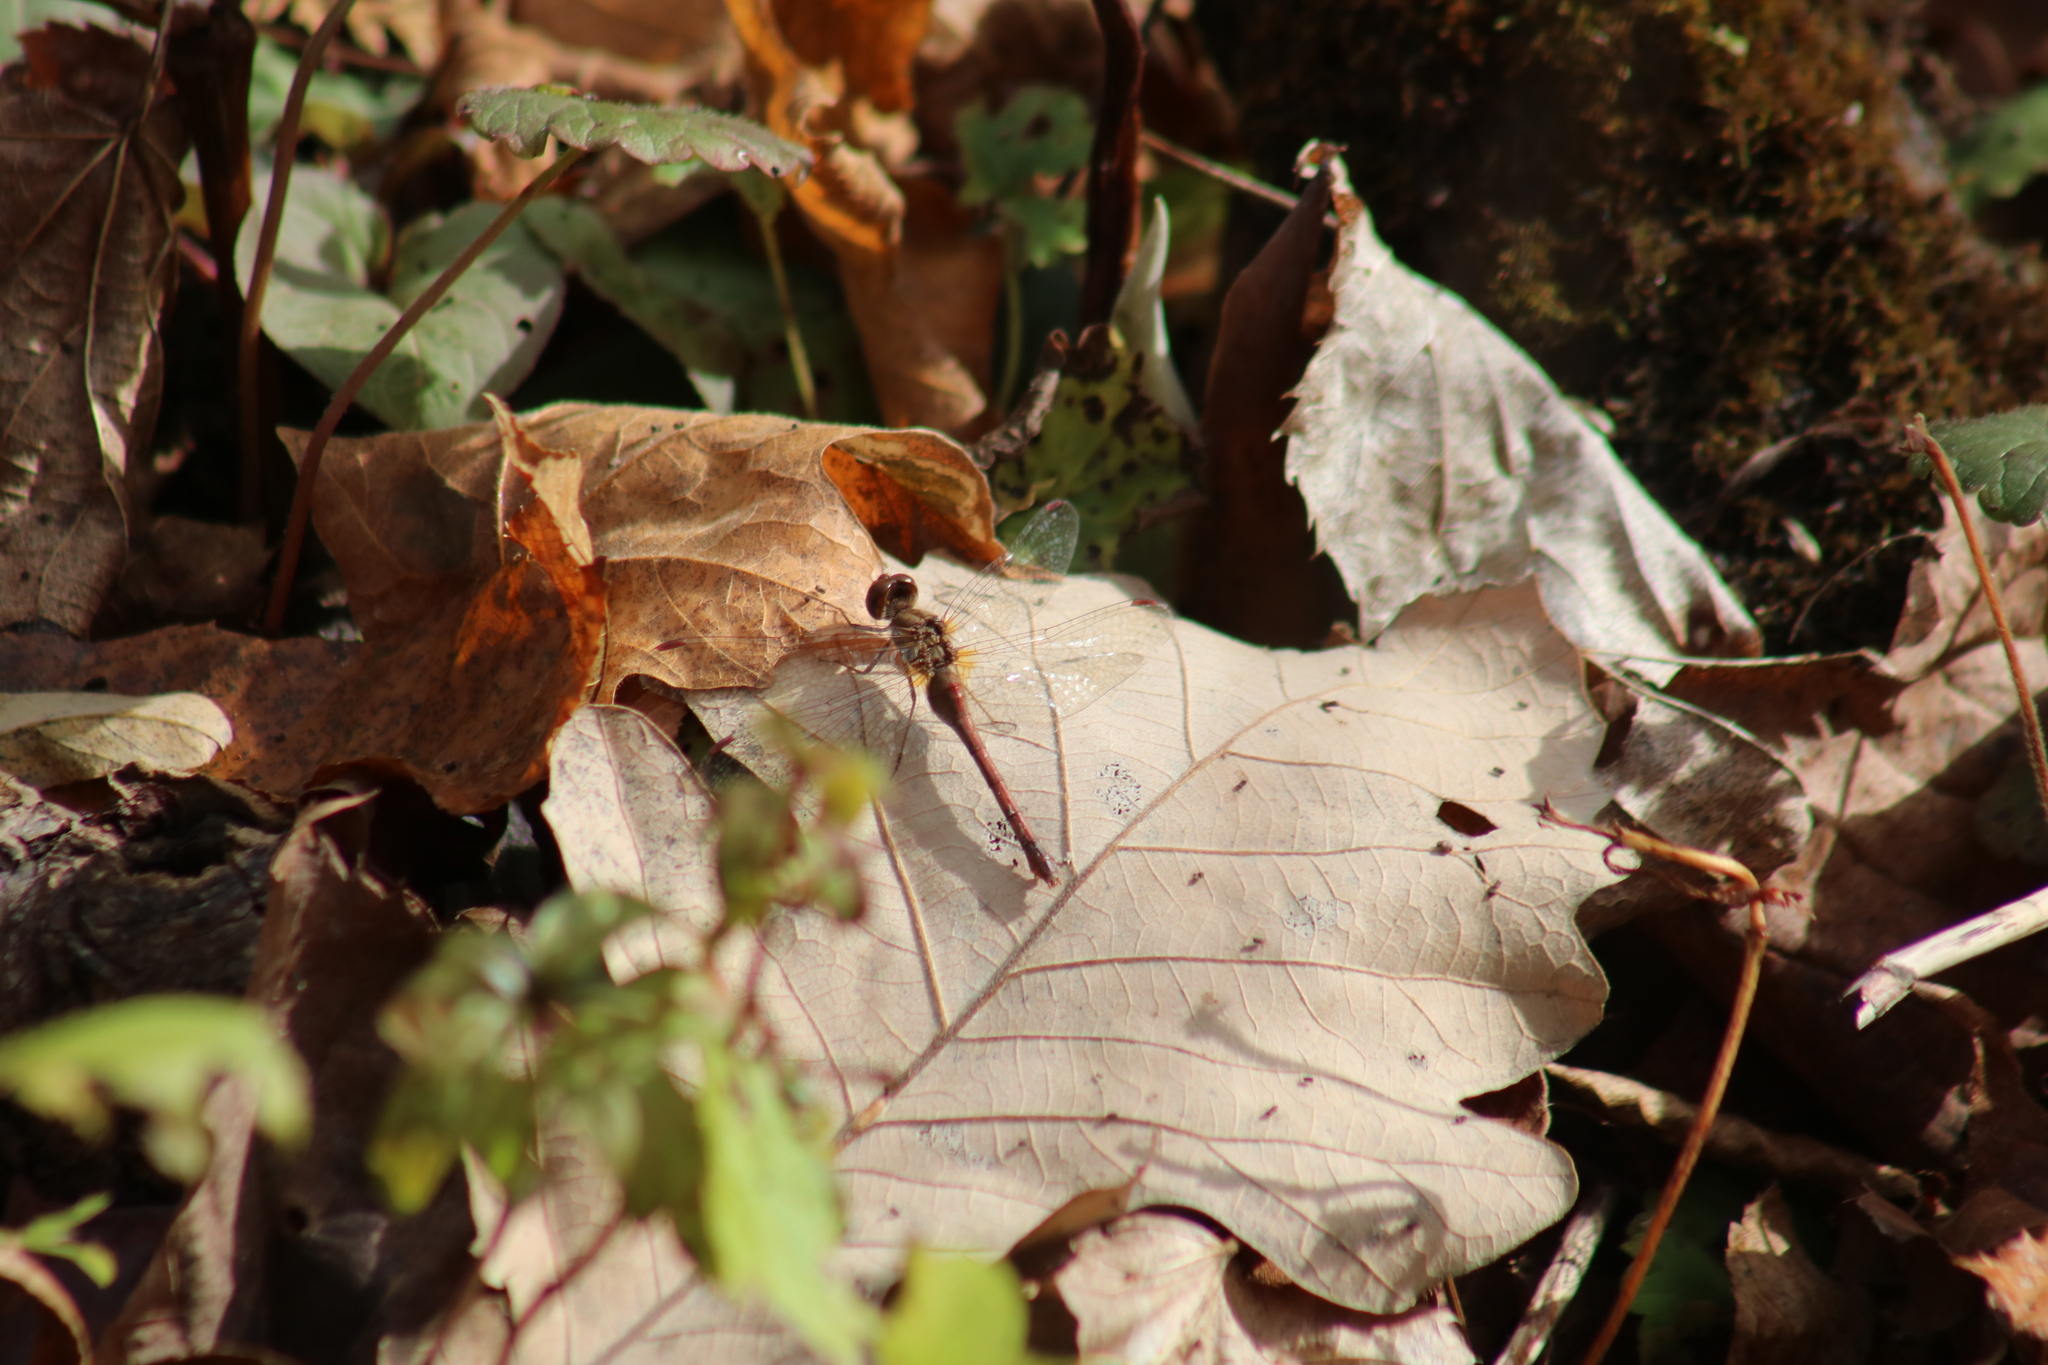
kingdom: Animalia
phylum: Arthropoda
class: Insecta
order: Odonata
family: Libellulidae
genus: Sympetrum
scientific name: Sympetrum vicinum
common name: Autumn meadowhawk
